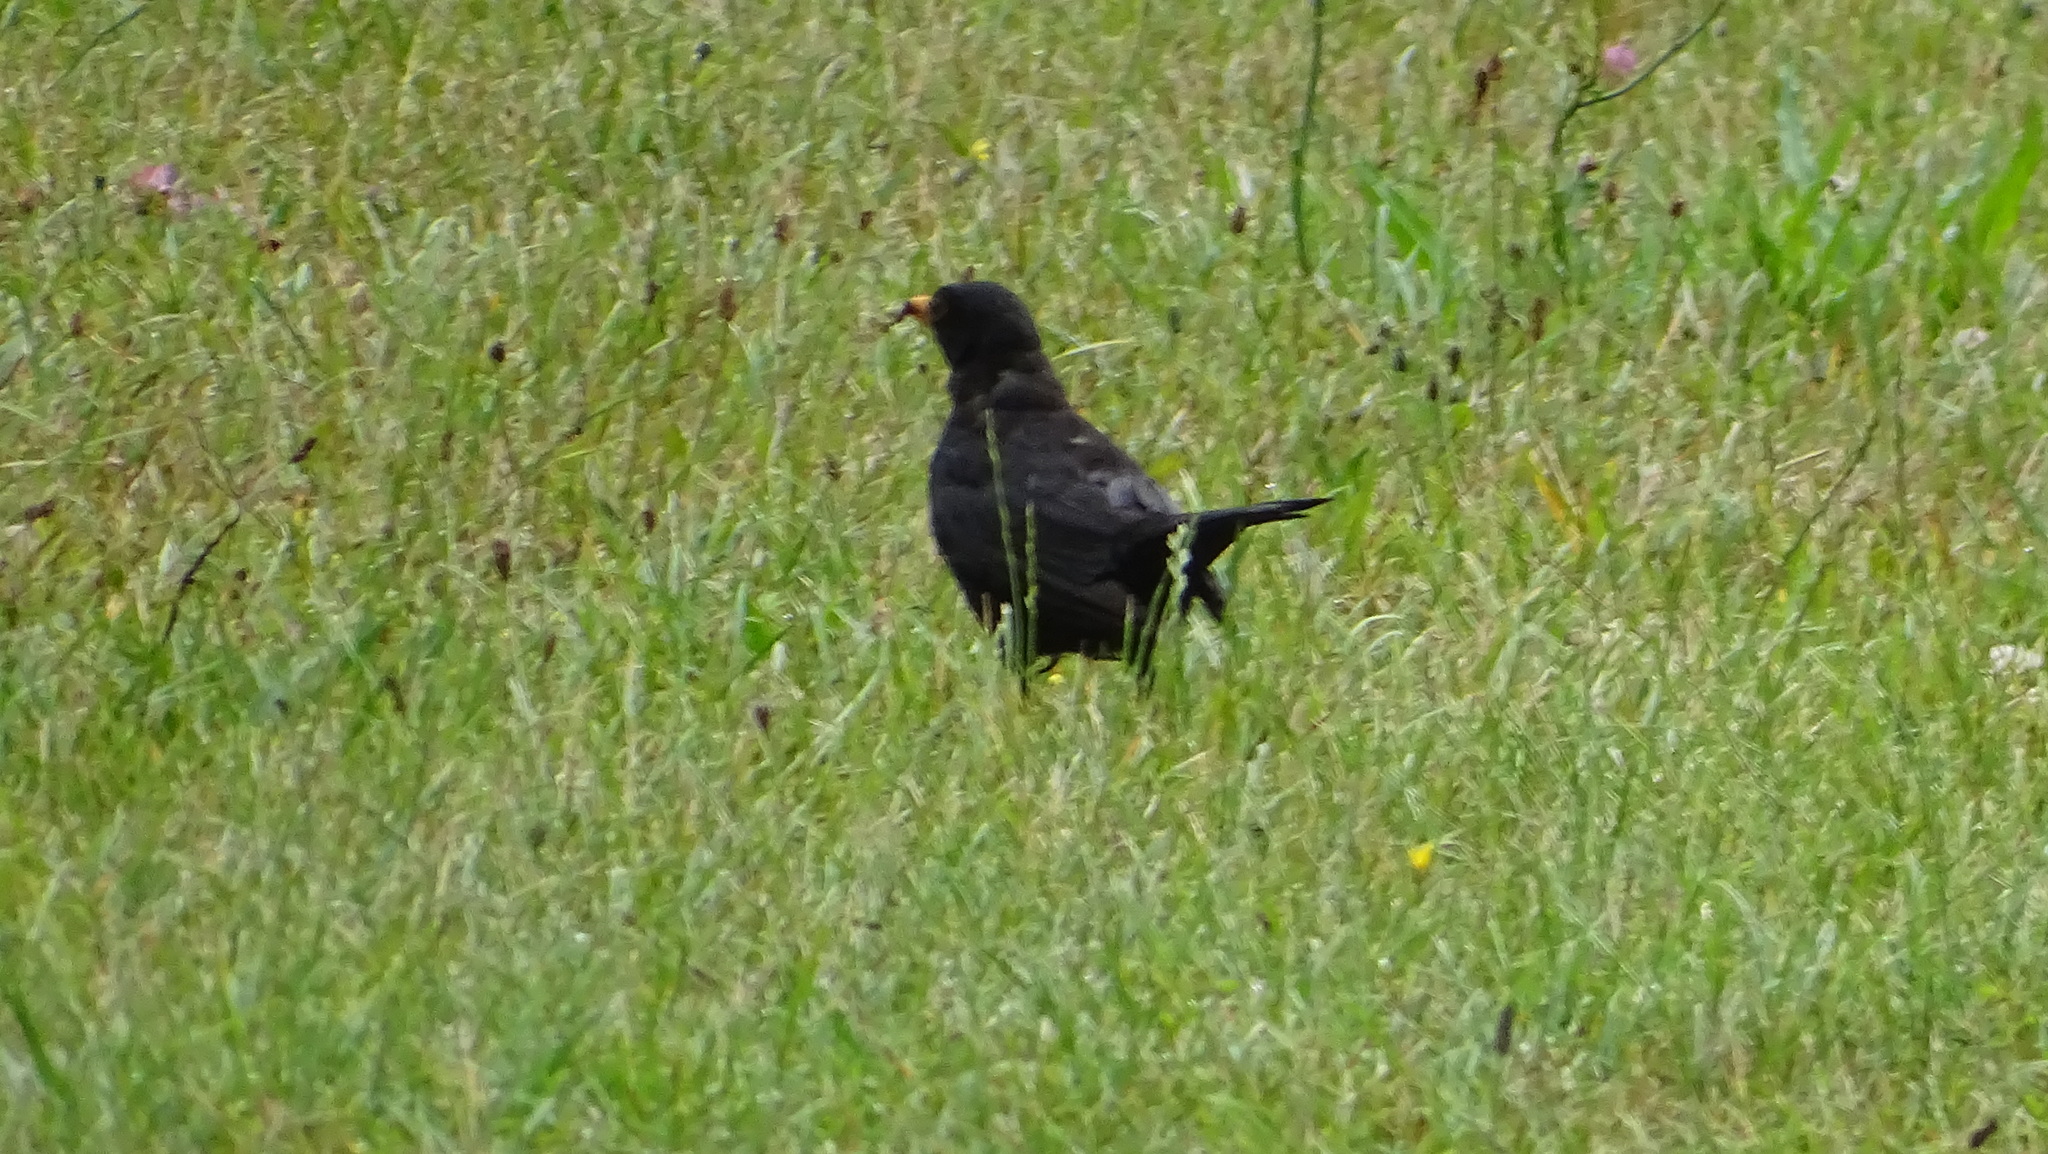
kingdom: Animalia
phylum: Chordata
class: Aves
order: Passeriformes
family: Turdidae
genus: Turdus
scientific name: Turdus merula
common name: Common blackbird
